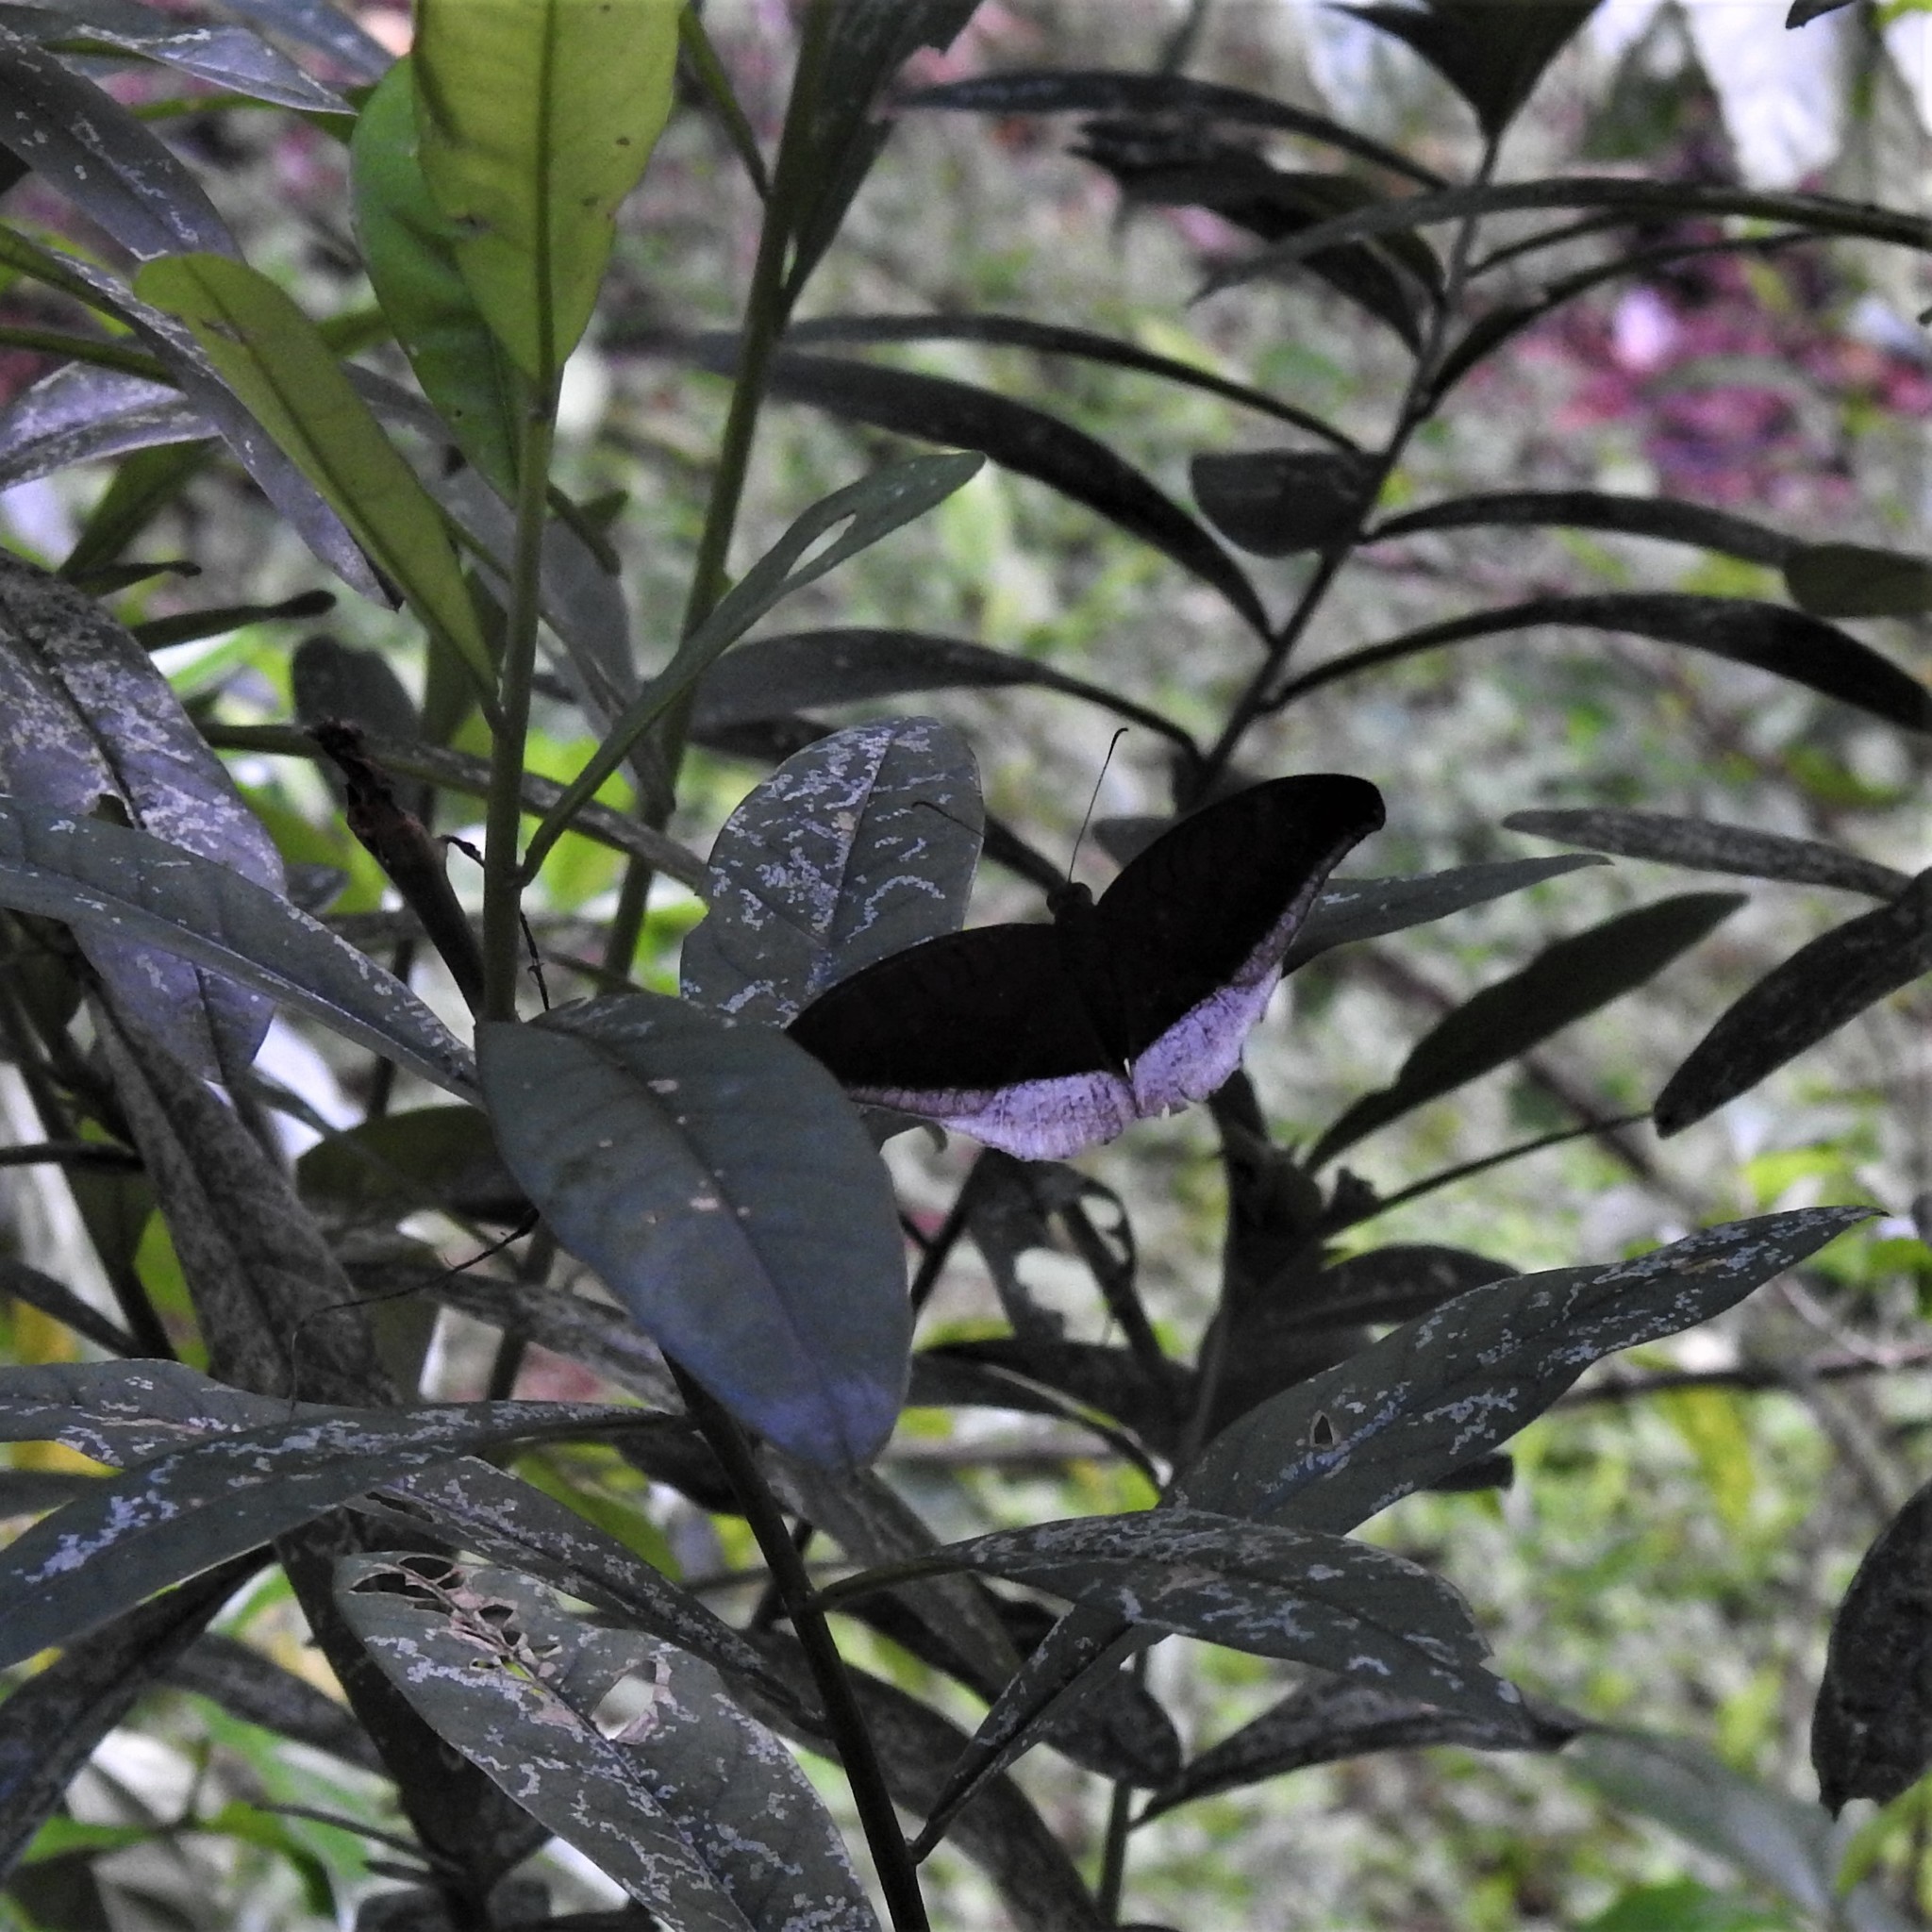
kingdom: Animalia
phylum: Arthropoda
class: Insecta
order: Lepidoptera
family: Nymphalidae
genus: Tanaecia
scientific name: Tanaecia lepidea
